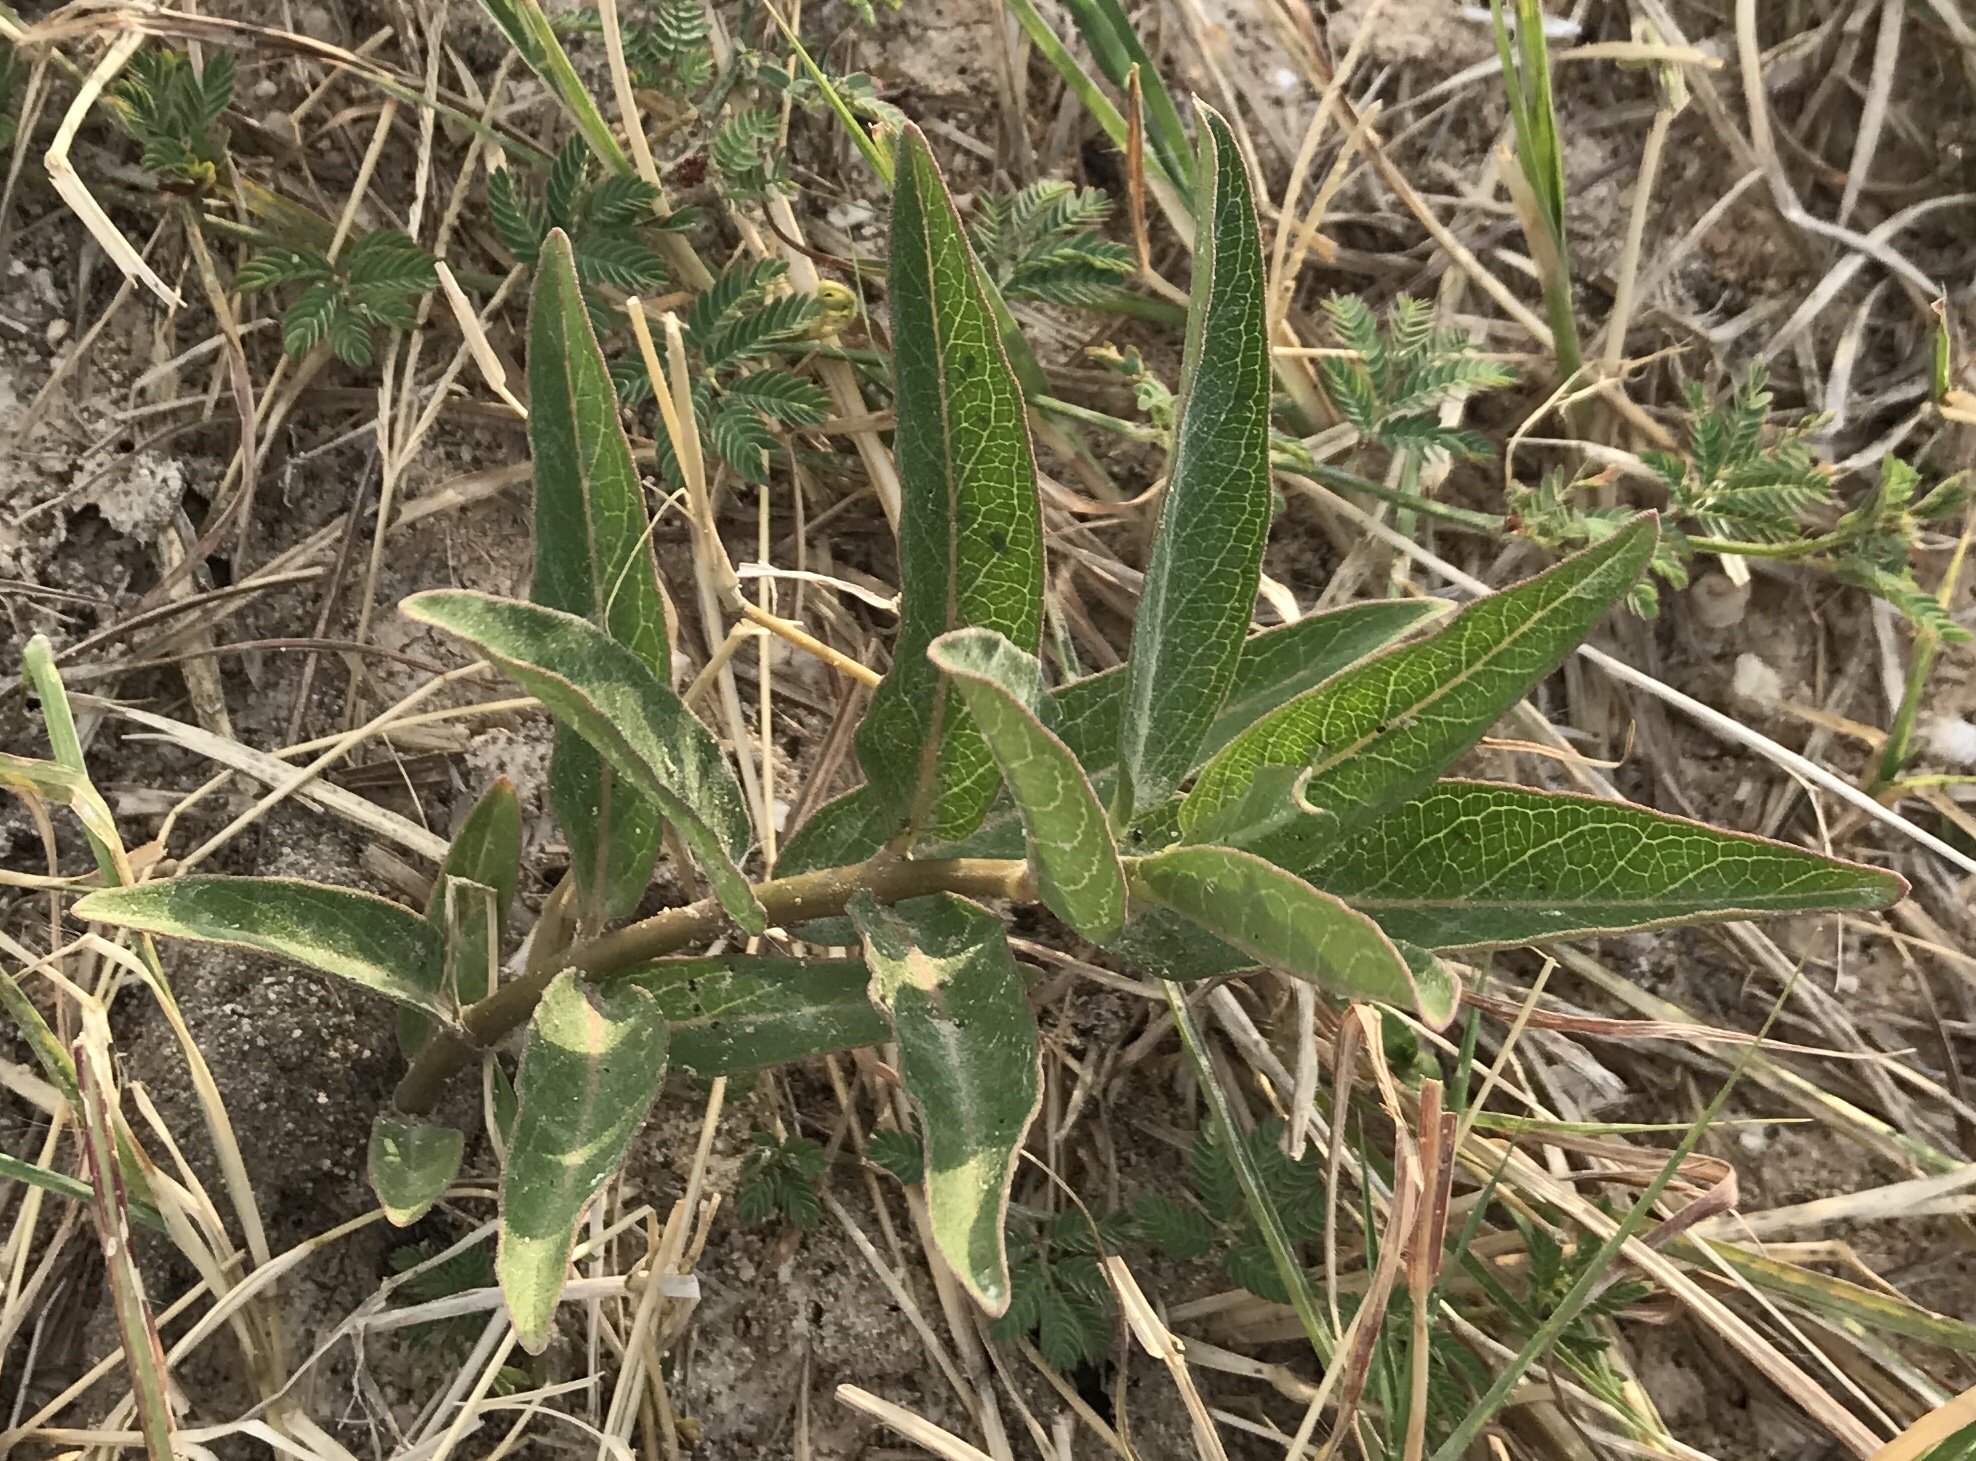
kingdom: Plantae
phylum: Tracheophyta
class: Magnoliopsida
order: Gentianales
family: Apocynaceae
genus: Asclepias
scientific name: Asclepias viridis
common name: Antelope-horns
